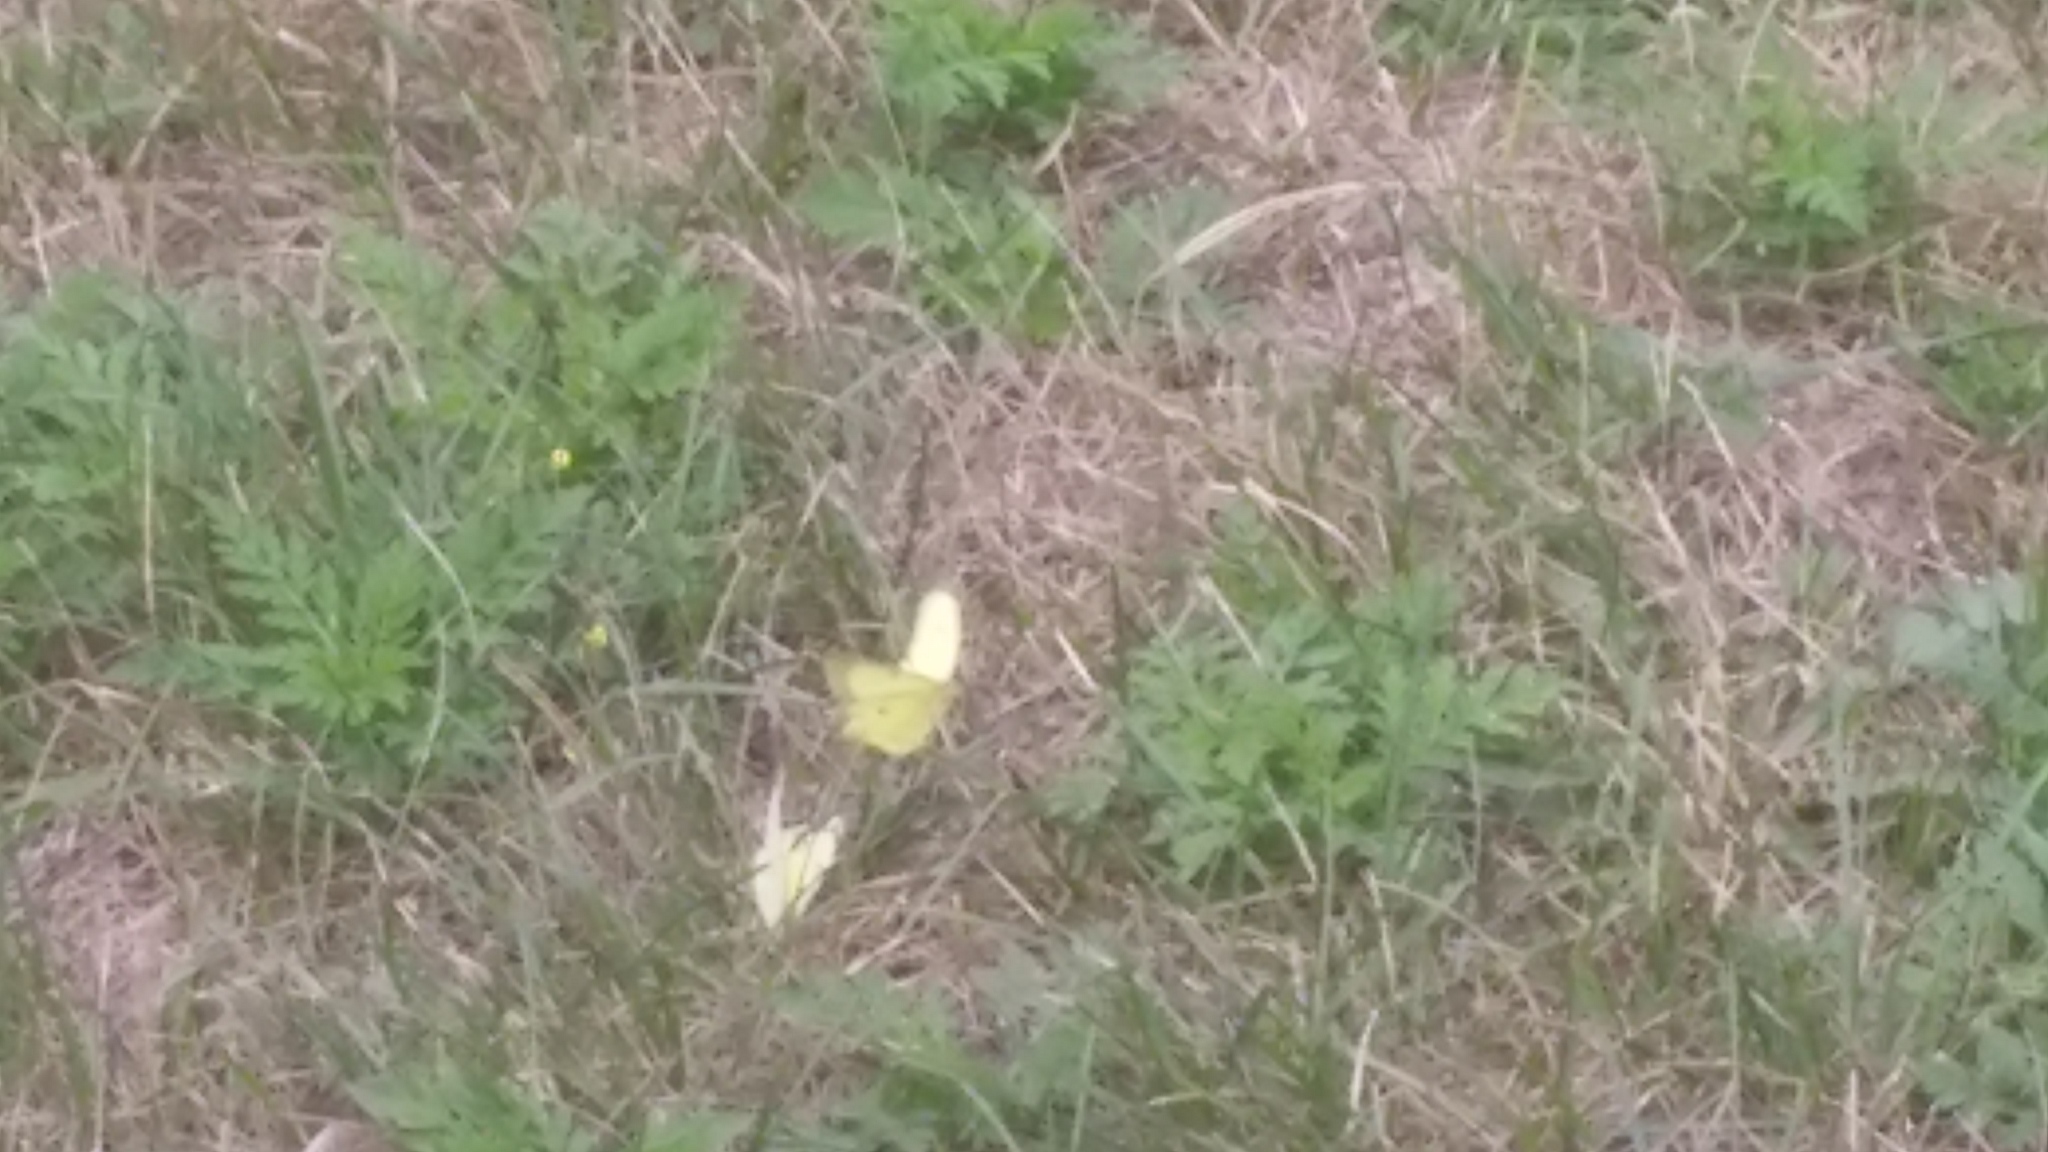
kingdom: Animalia
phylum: Arthropoda
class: Insecta
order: Lepidoptera
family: Pieridae
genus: Colias
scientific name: Colias philodice
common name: Clouded sulphur
